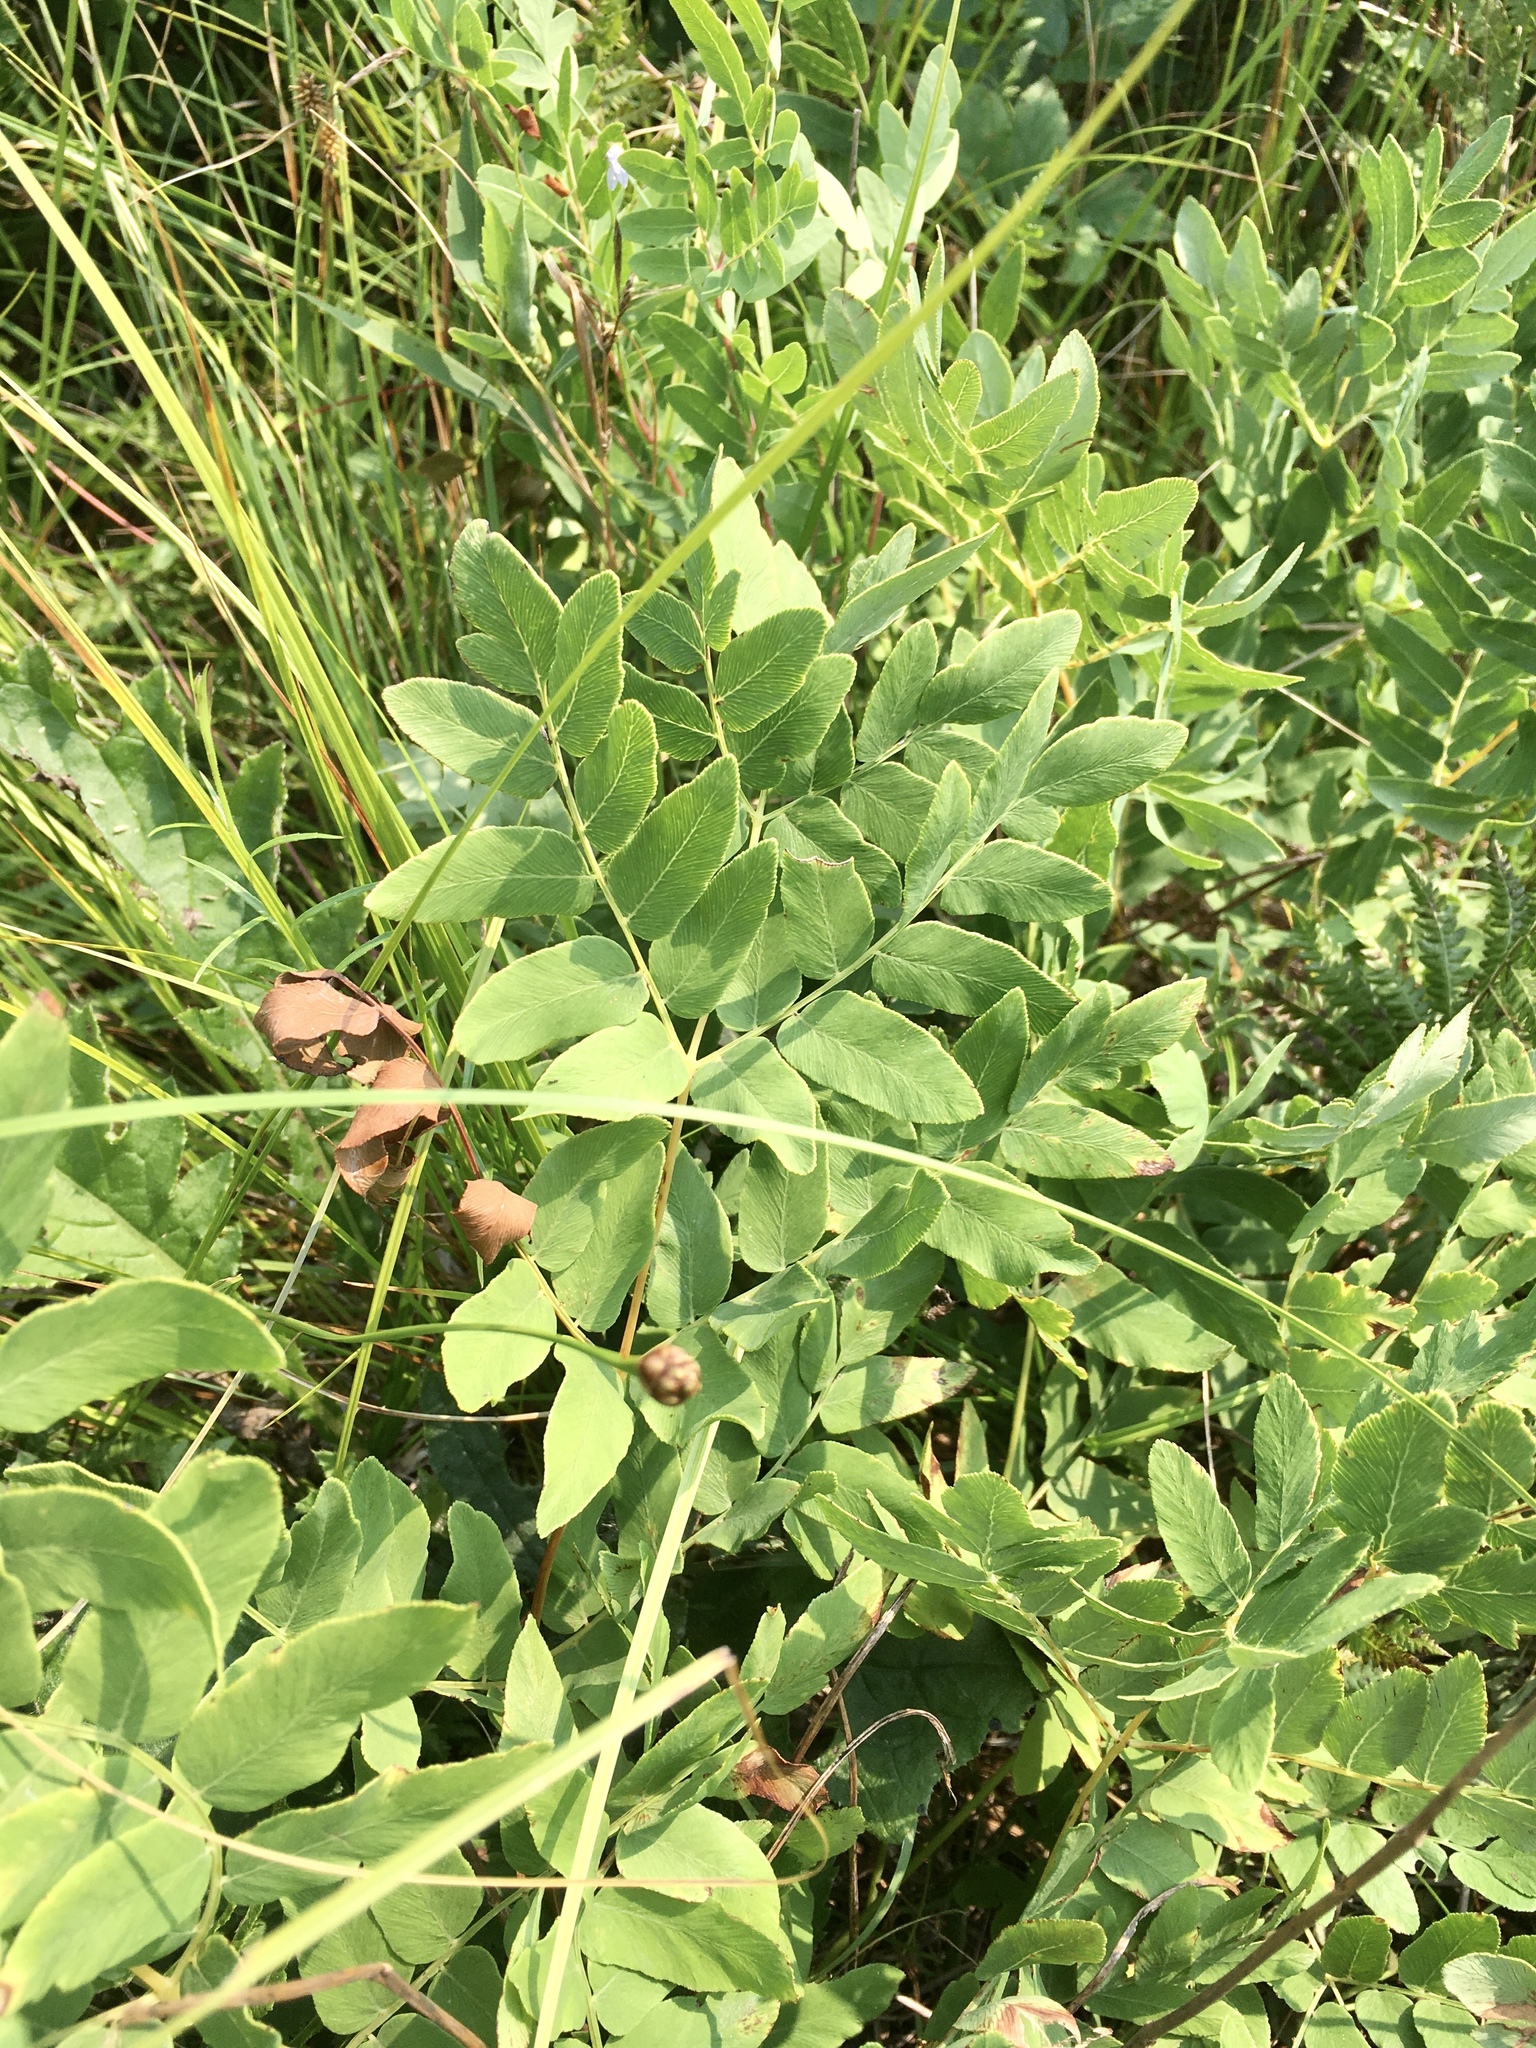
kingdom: Plantae
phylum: Tracheophyta
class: Polypodiopsida
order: Osmundales
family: Osmundaceae
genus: Osmunda
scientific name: Osmunda spectabilis
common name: American royal fern
